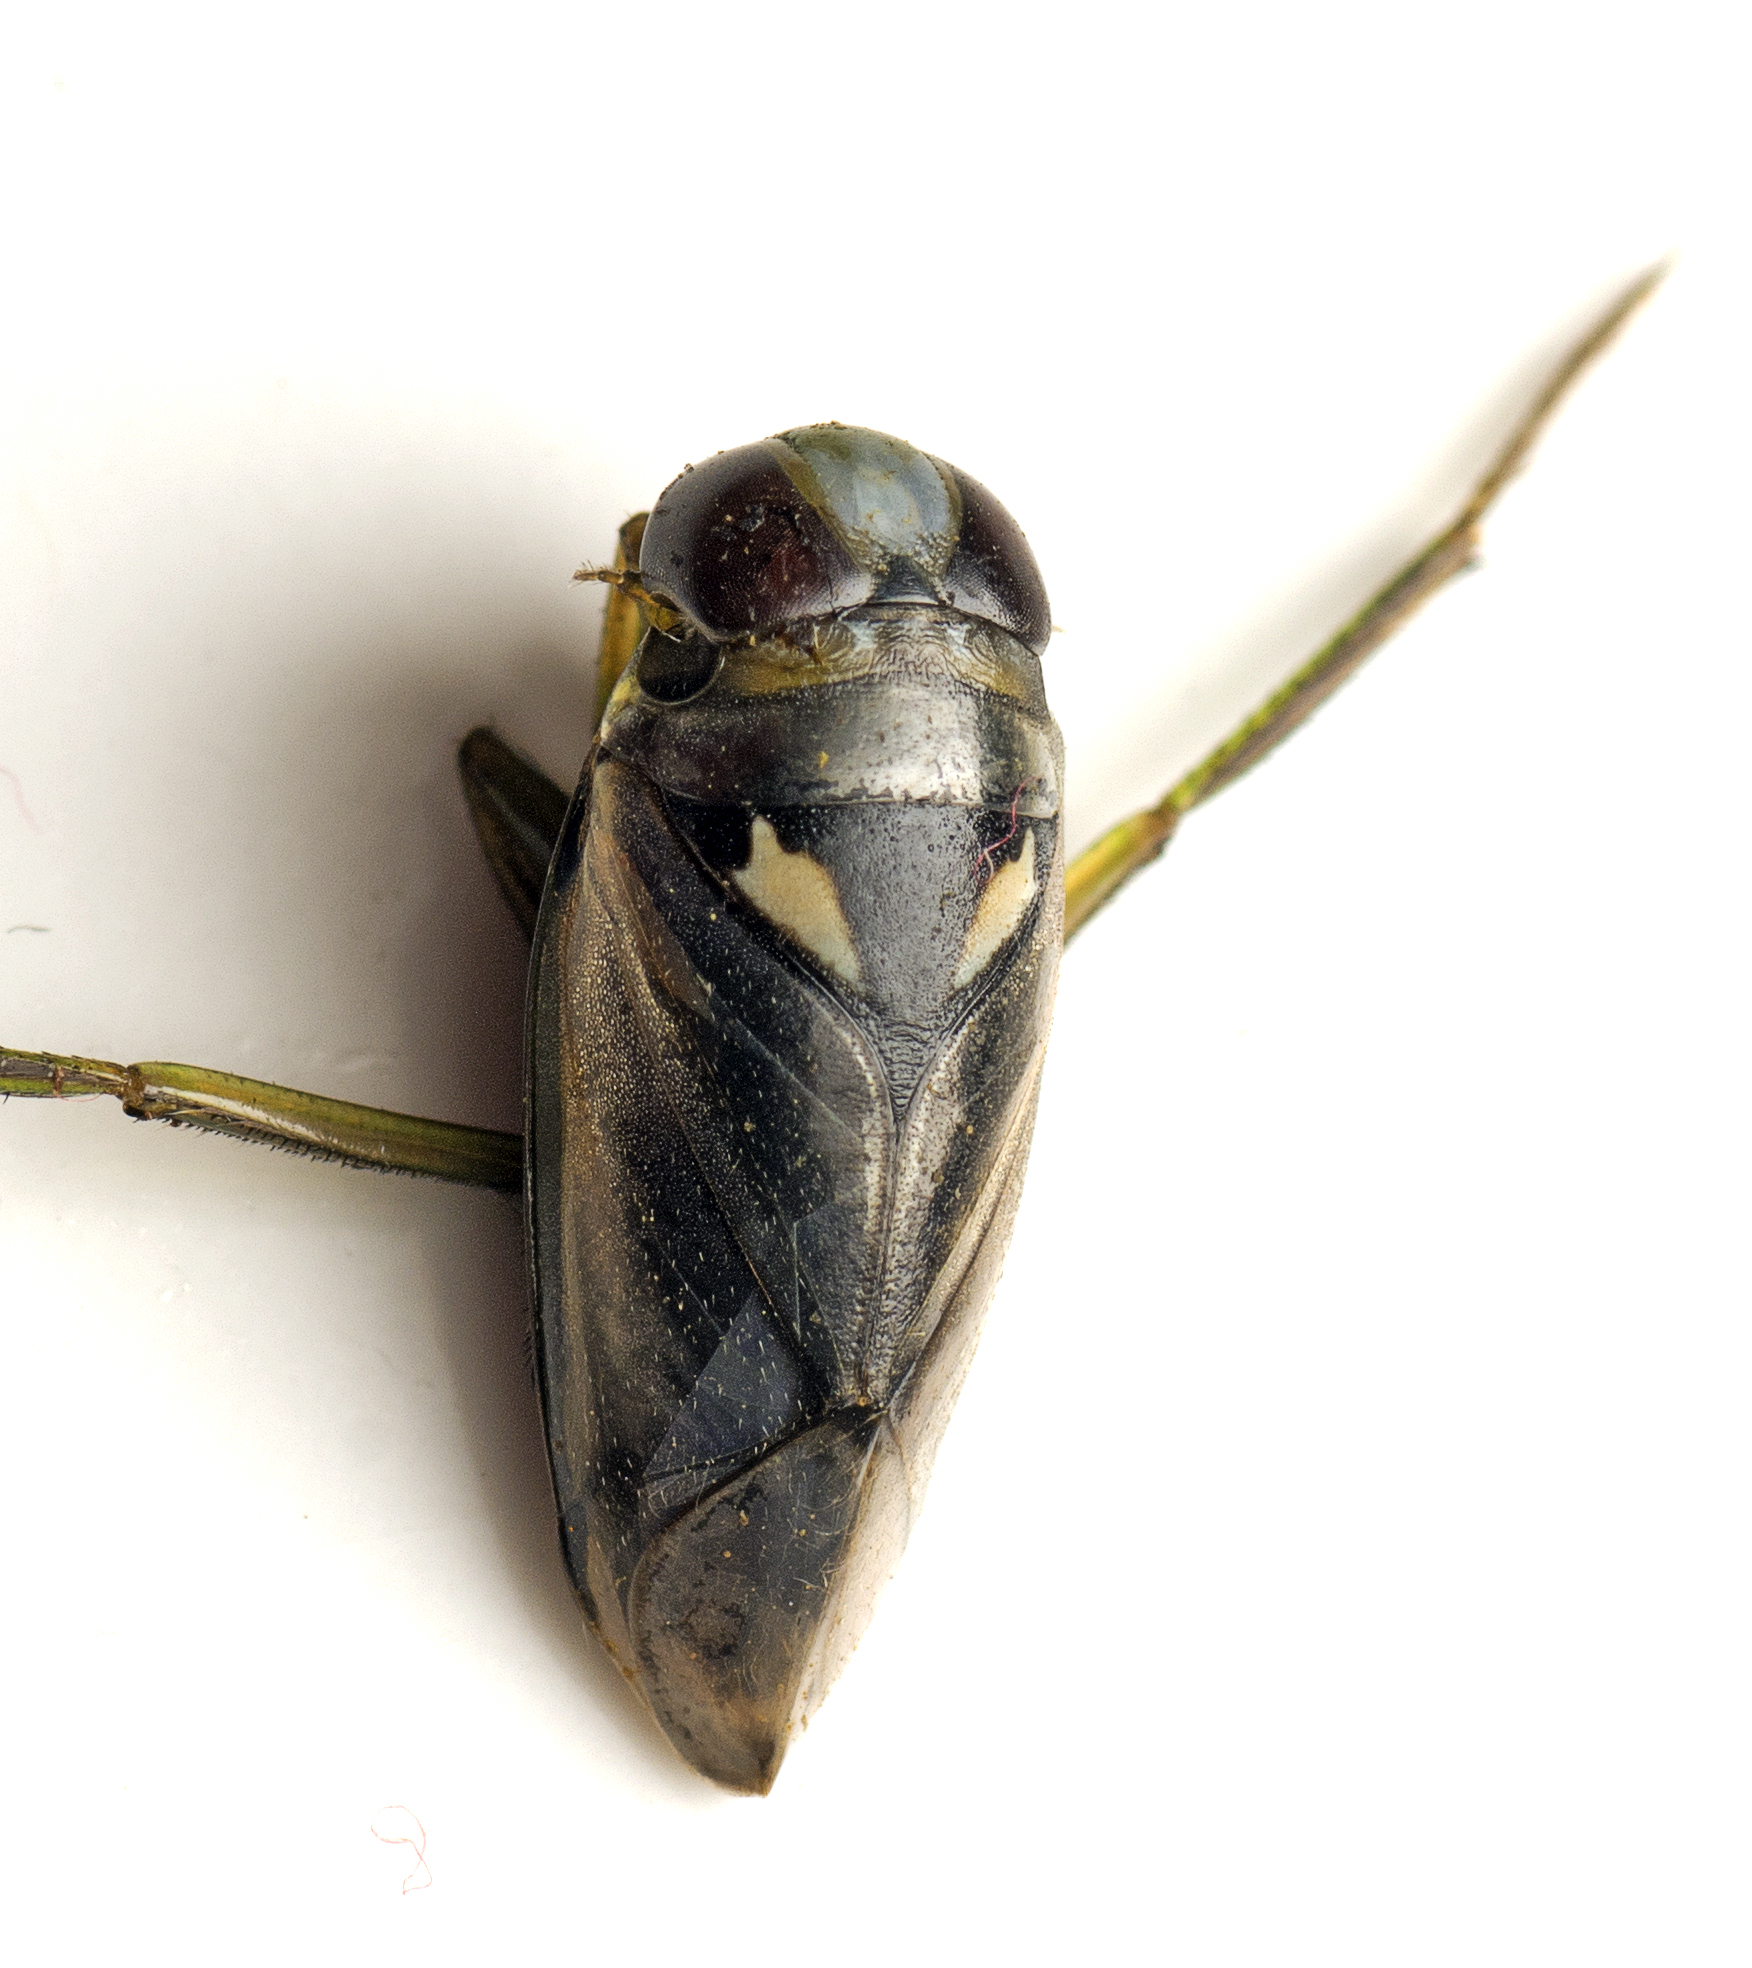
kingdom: Animalia
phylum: Arthropoda
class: Insecta
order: Hemiptera
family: Notonectidae
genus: Enithares
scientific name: Enithares
